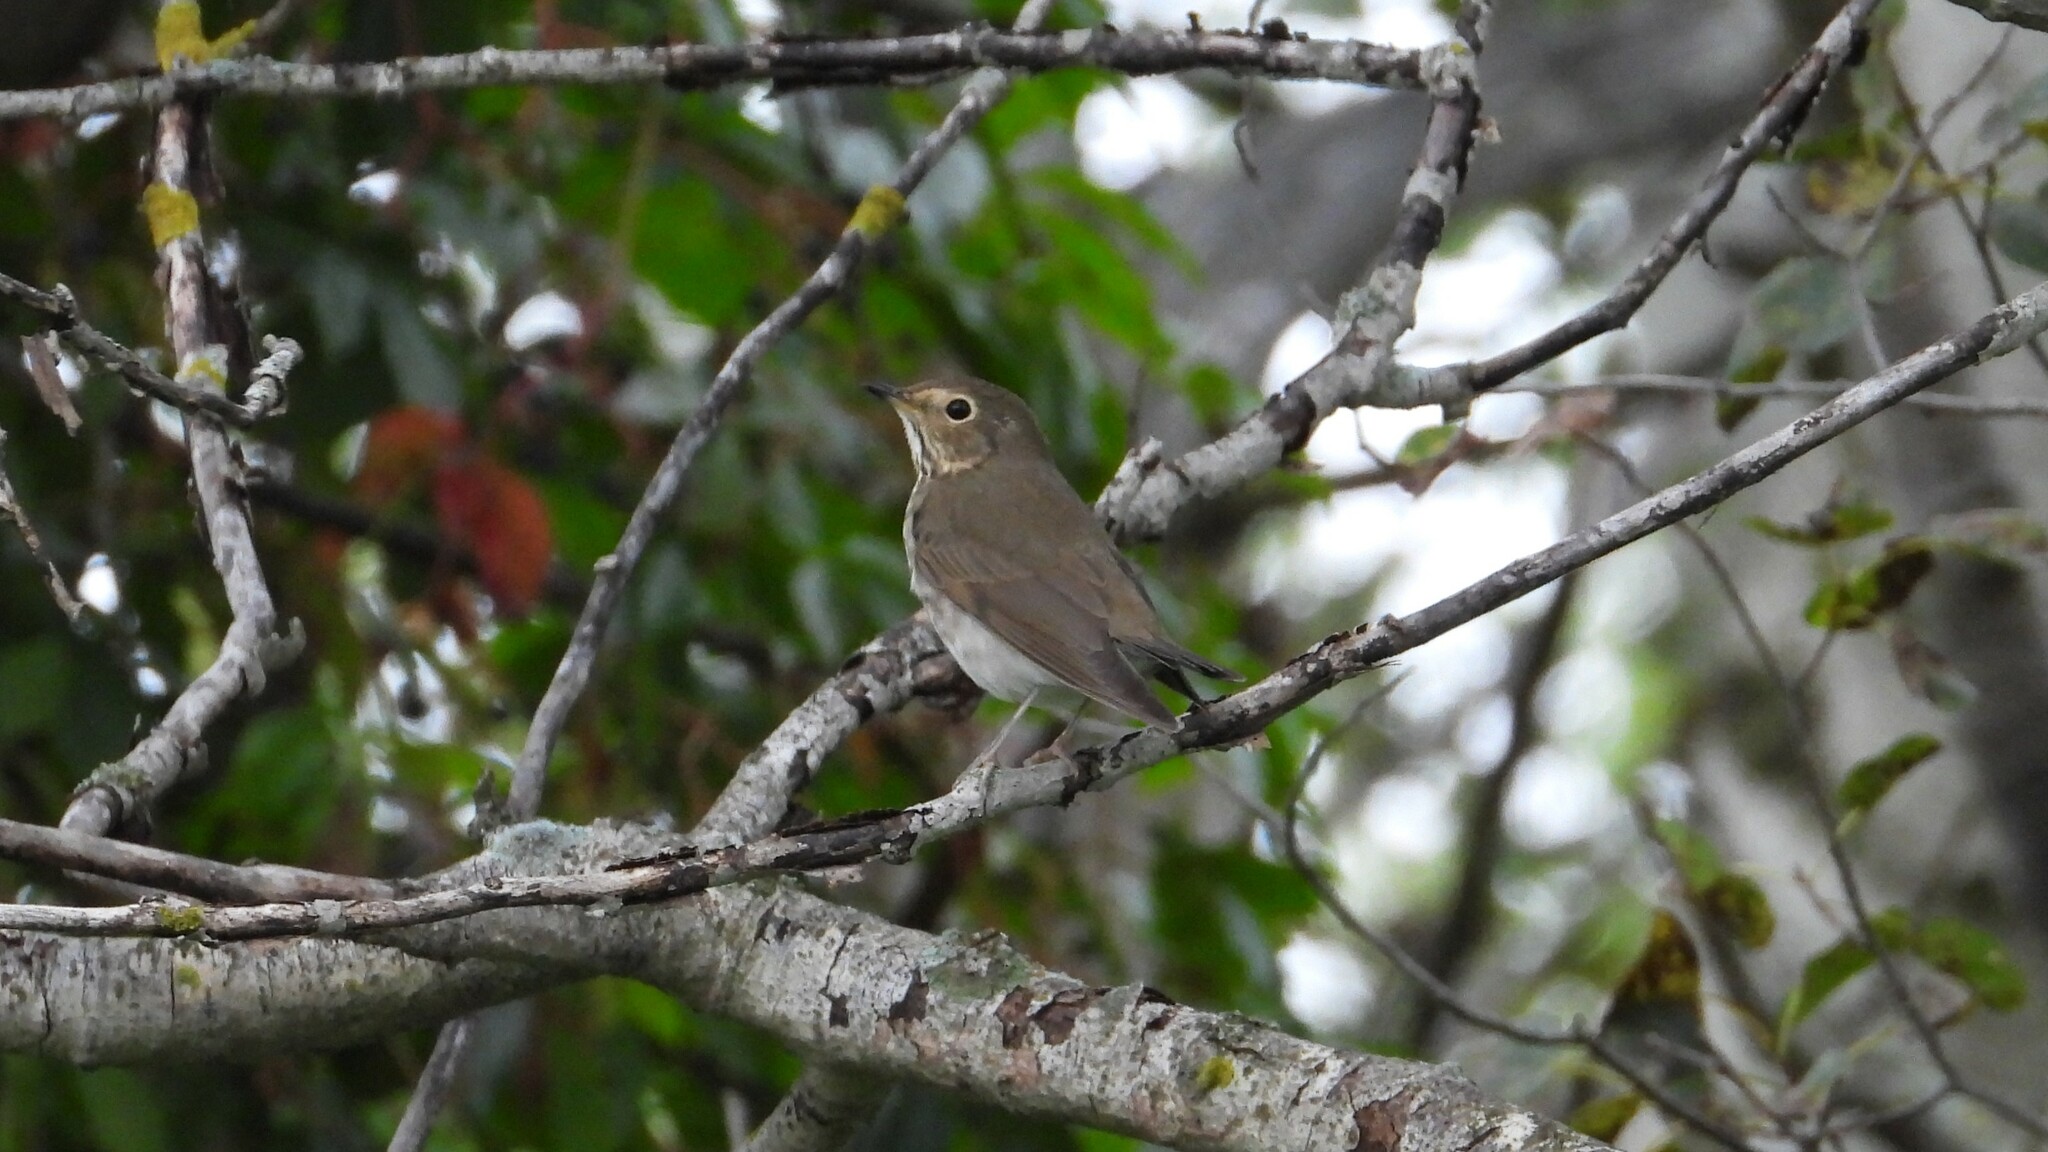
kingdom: Animalia
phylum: Chordata
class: Aves
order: Passeriformes
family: Turdidae
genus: Catharus
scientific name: Catharus ustulatus
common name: Swainson's thrush
